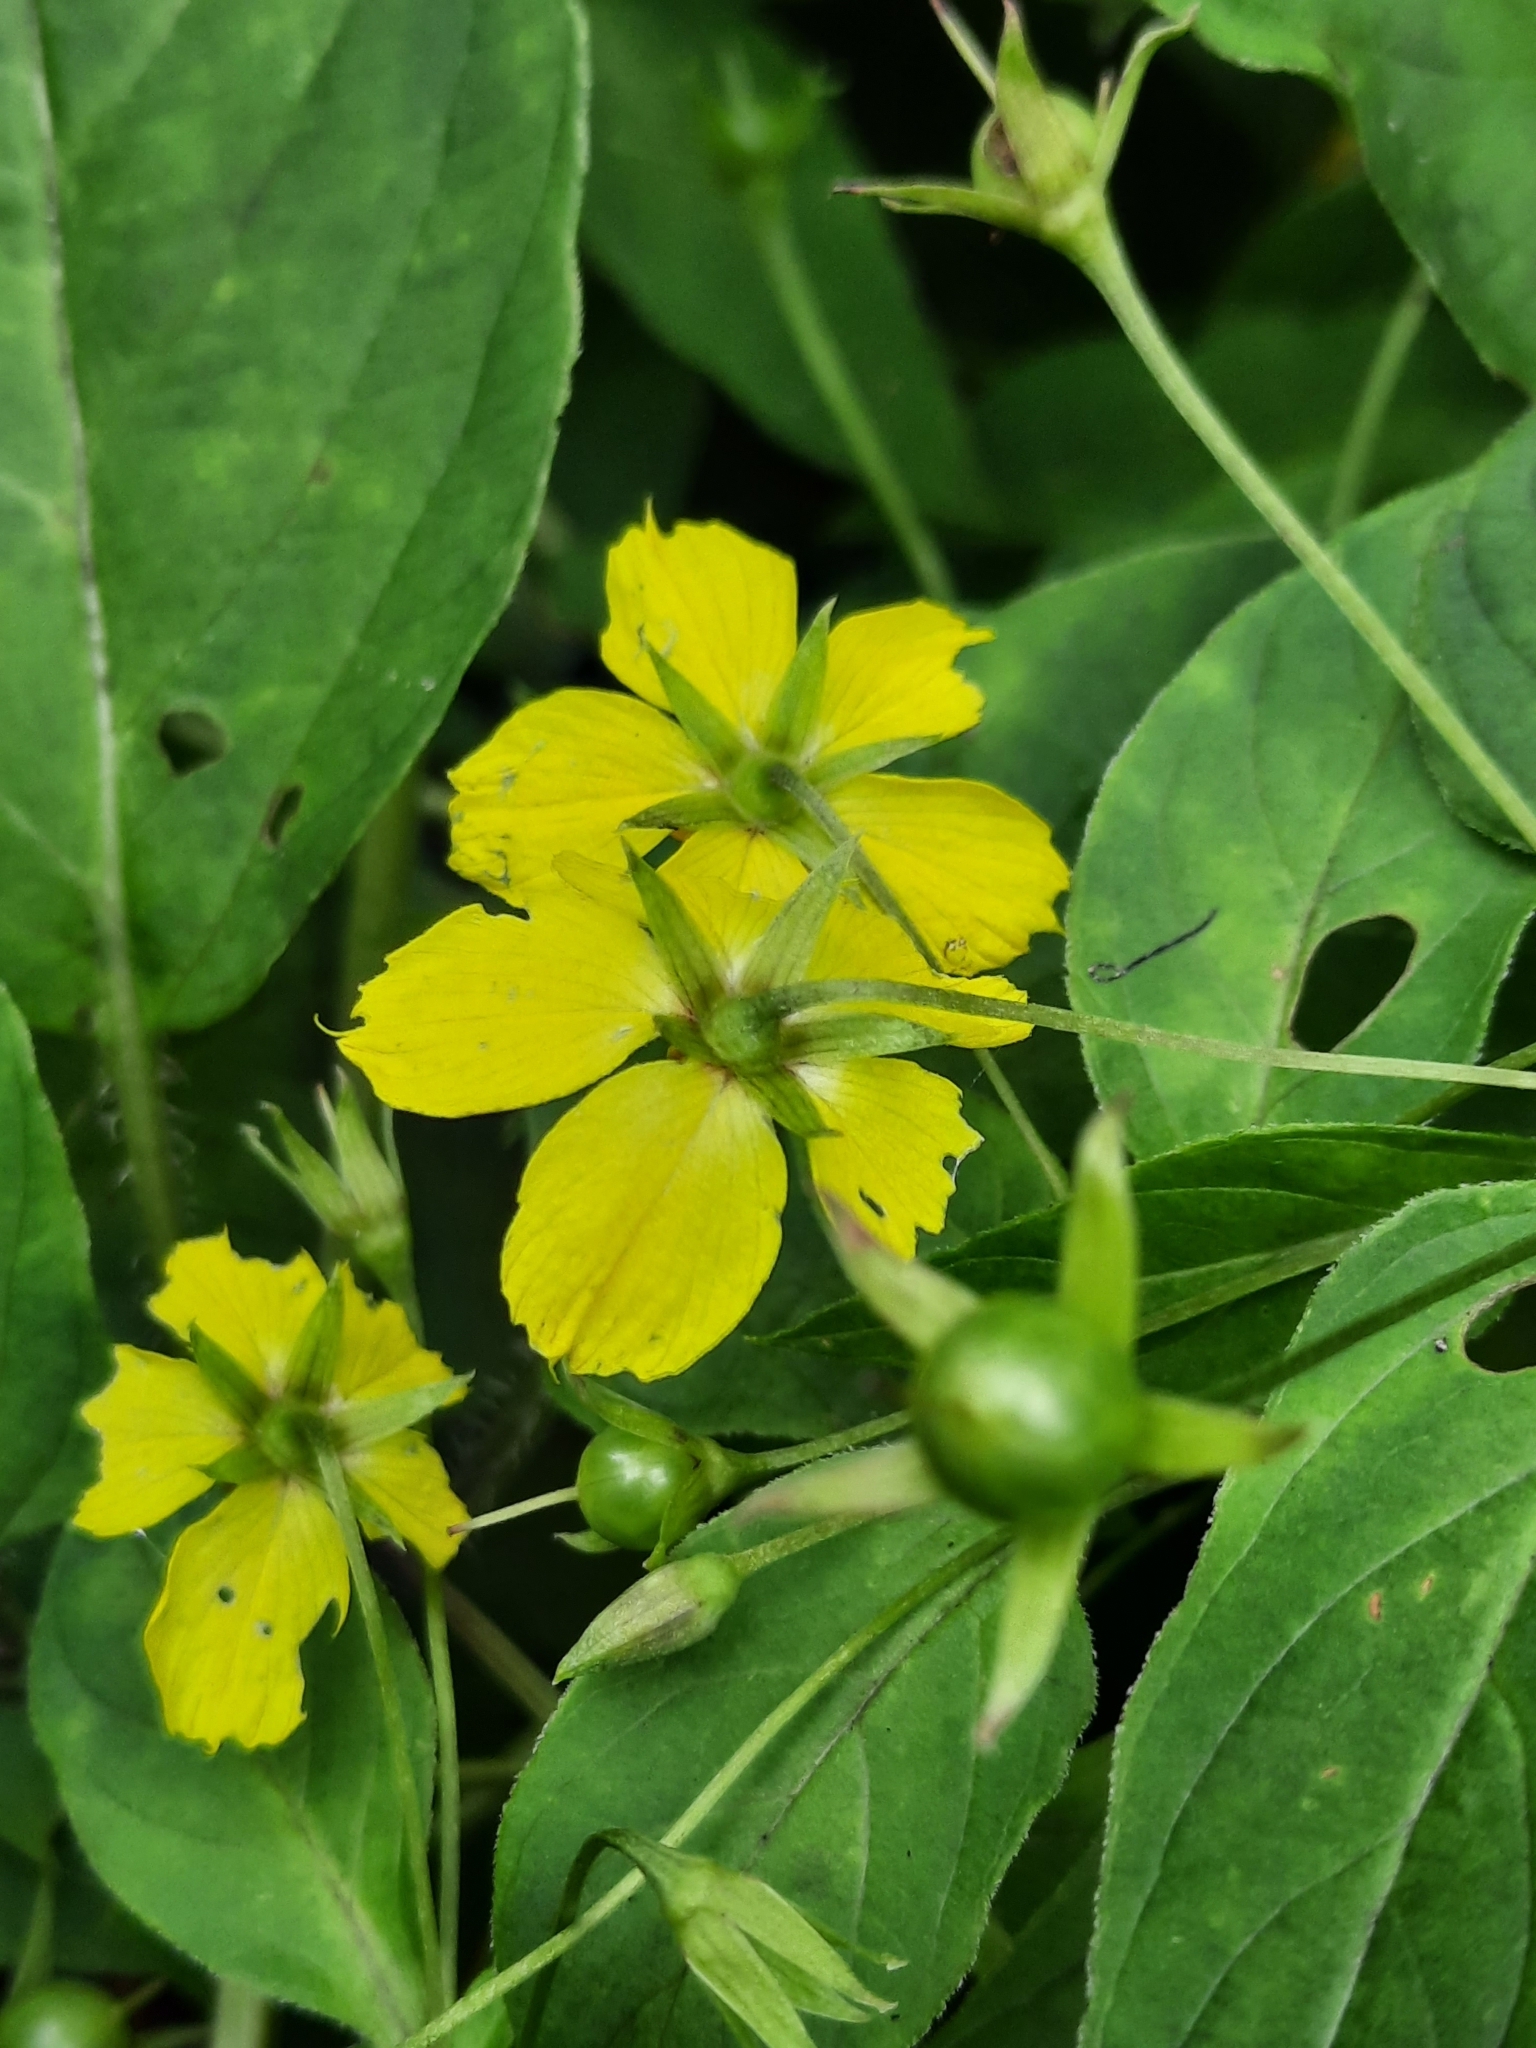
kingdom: Plantae
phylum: Tracheophyta
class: Magnoliopsida
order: Ericales
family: Primulaceae
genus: Lysimachia
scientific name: Lysimachia ciliata
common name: Fringed loosestrife
